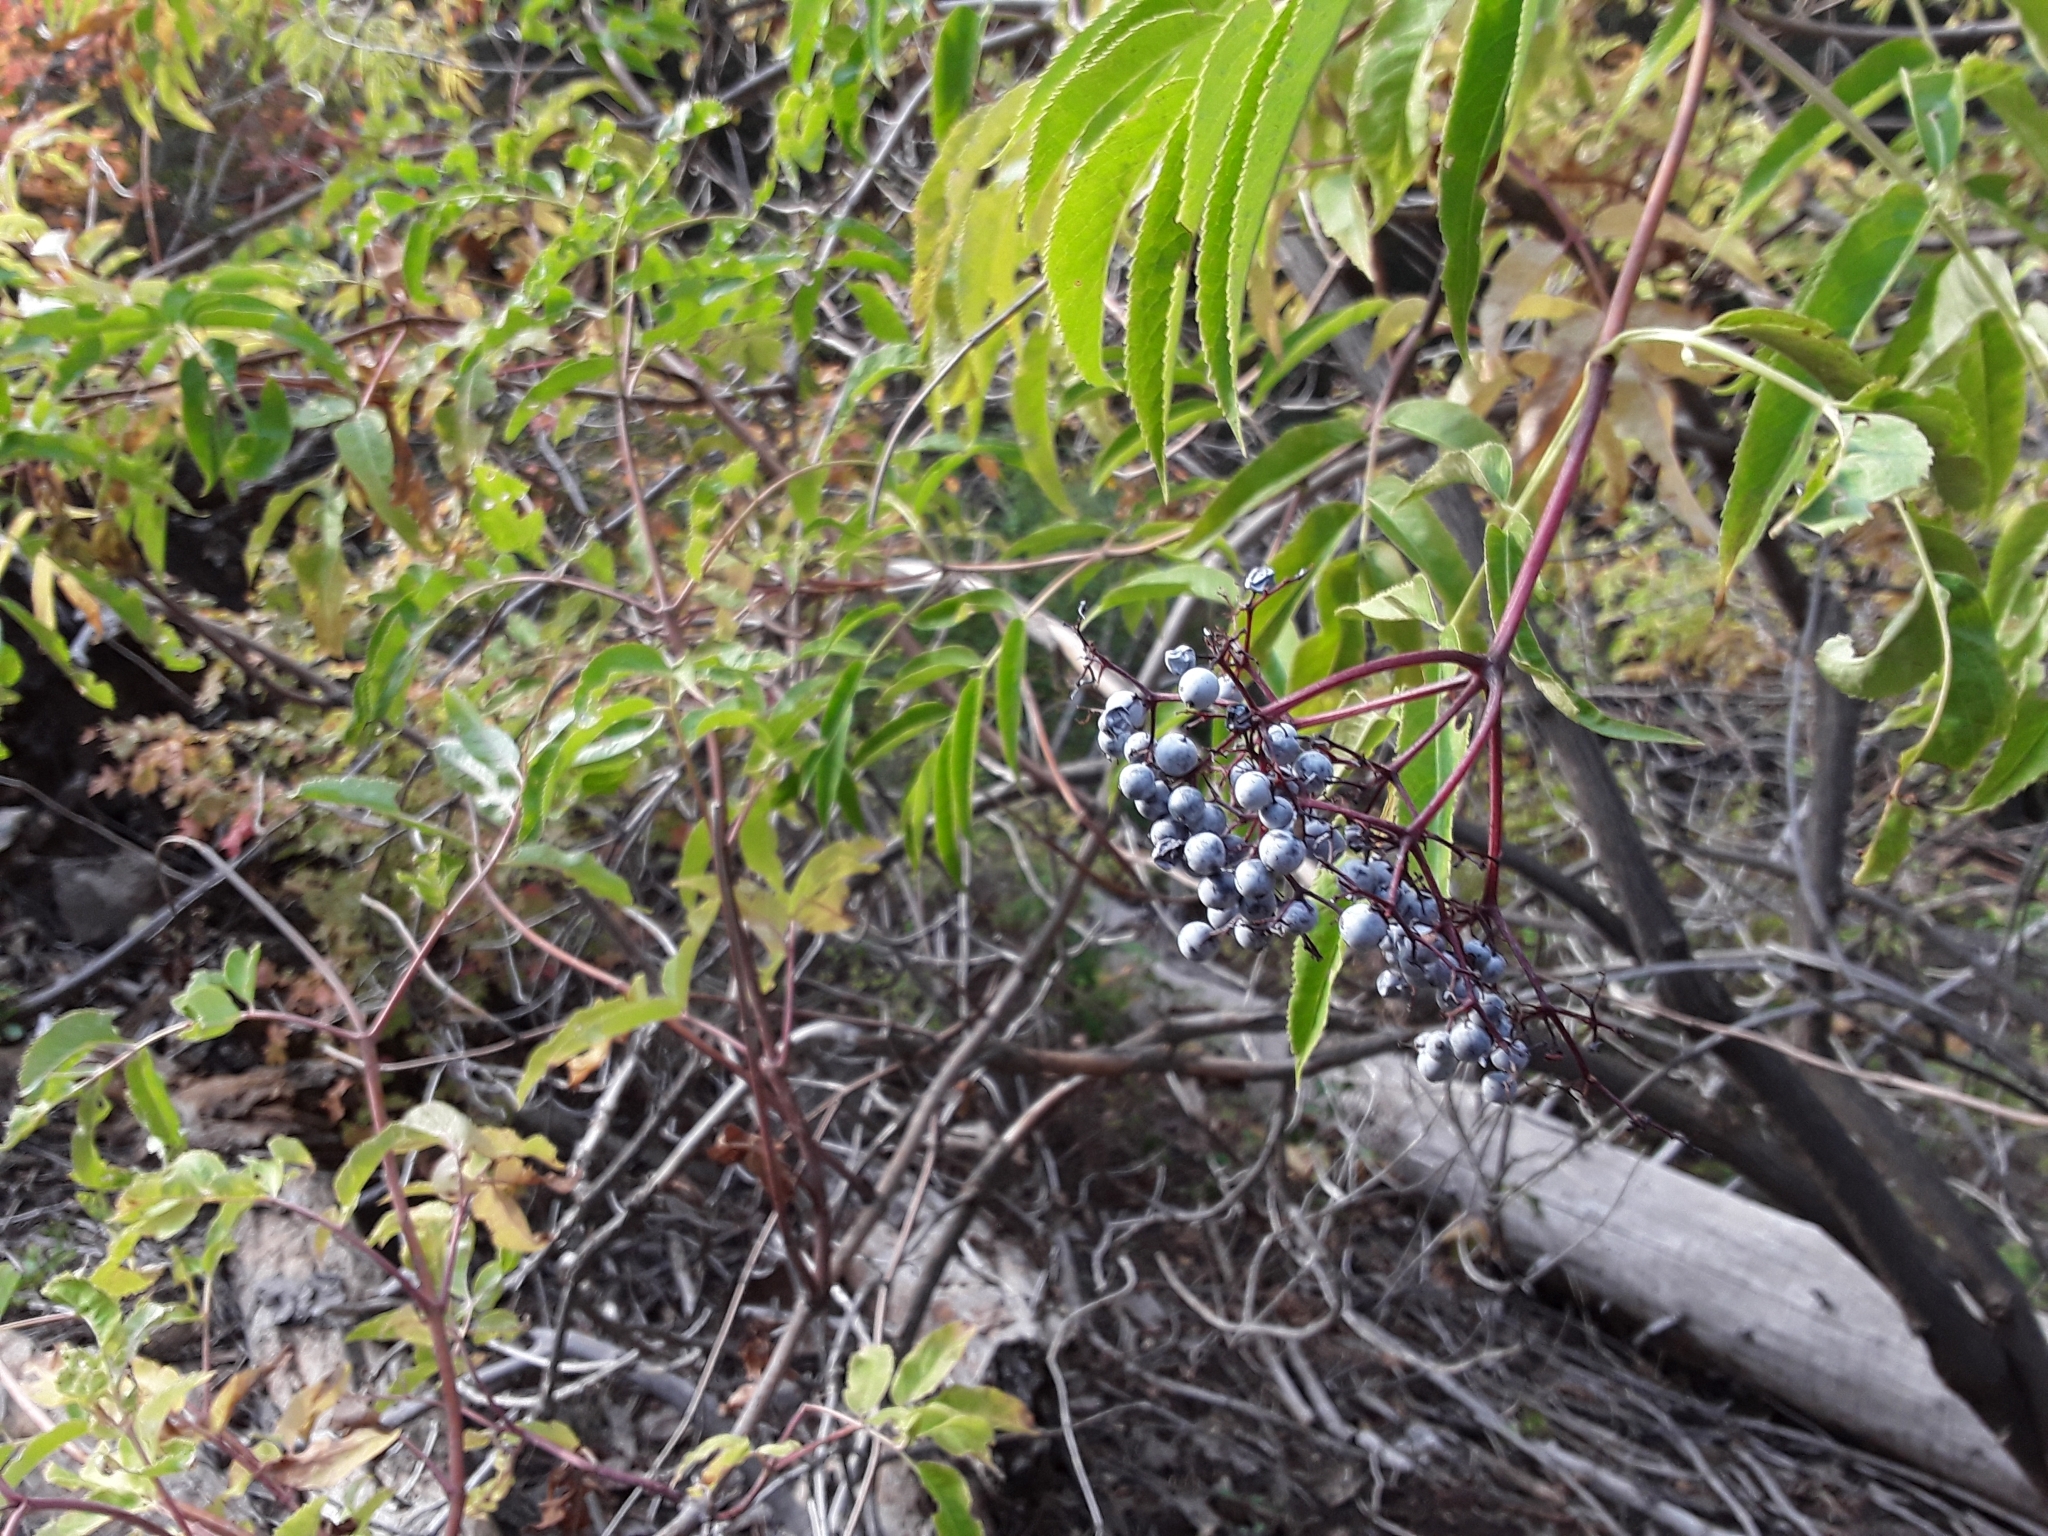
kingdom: Plantae
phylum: Tracheophyta
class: Magnoliopsida
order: Dipsacales
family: Viburnaceae
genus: Sambucus
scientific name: Sambucus cerulea
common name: Blue elder
